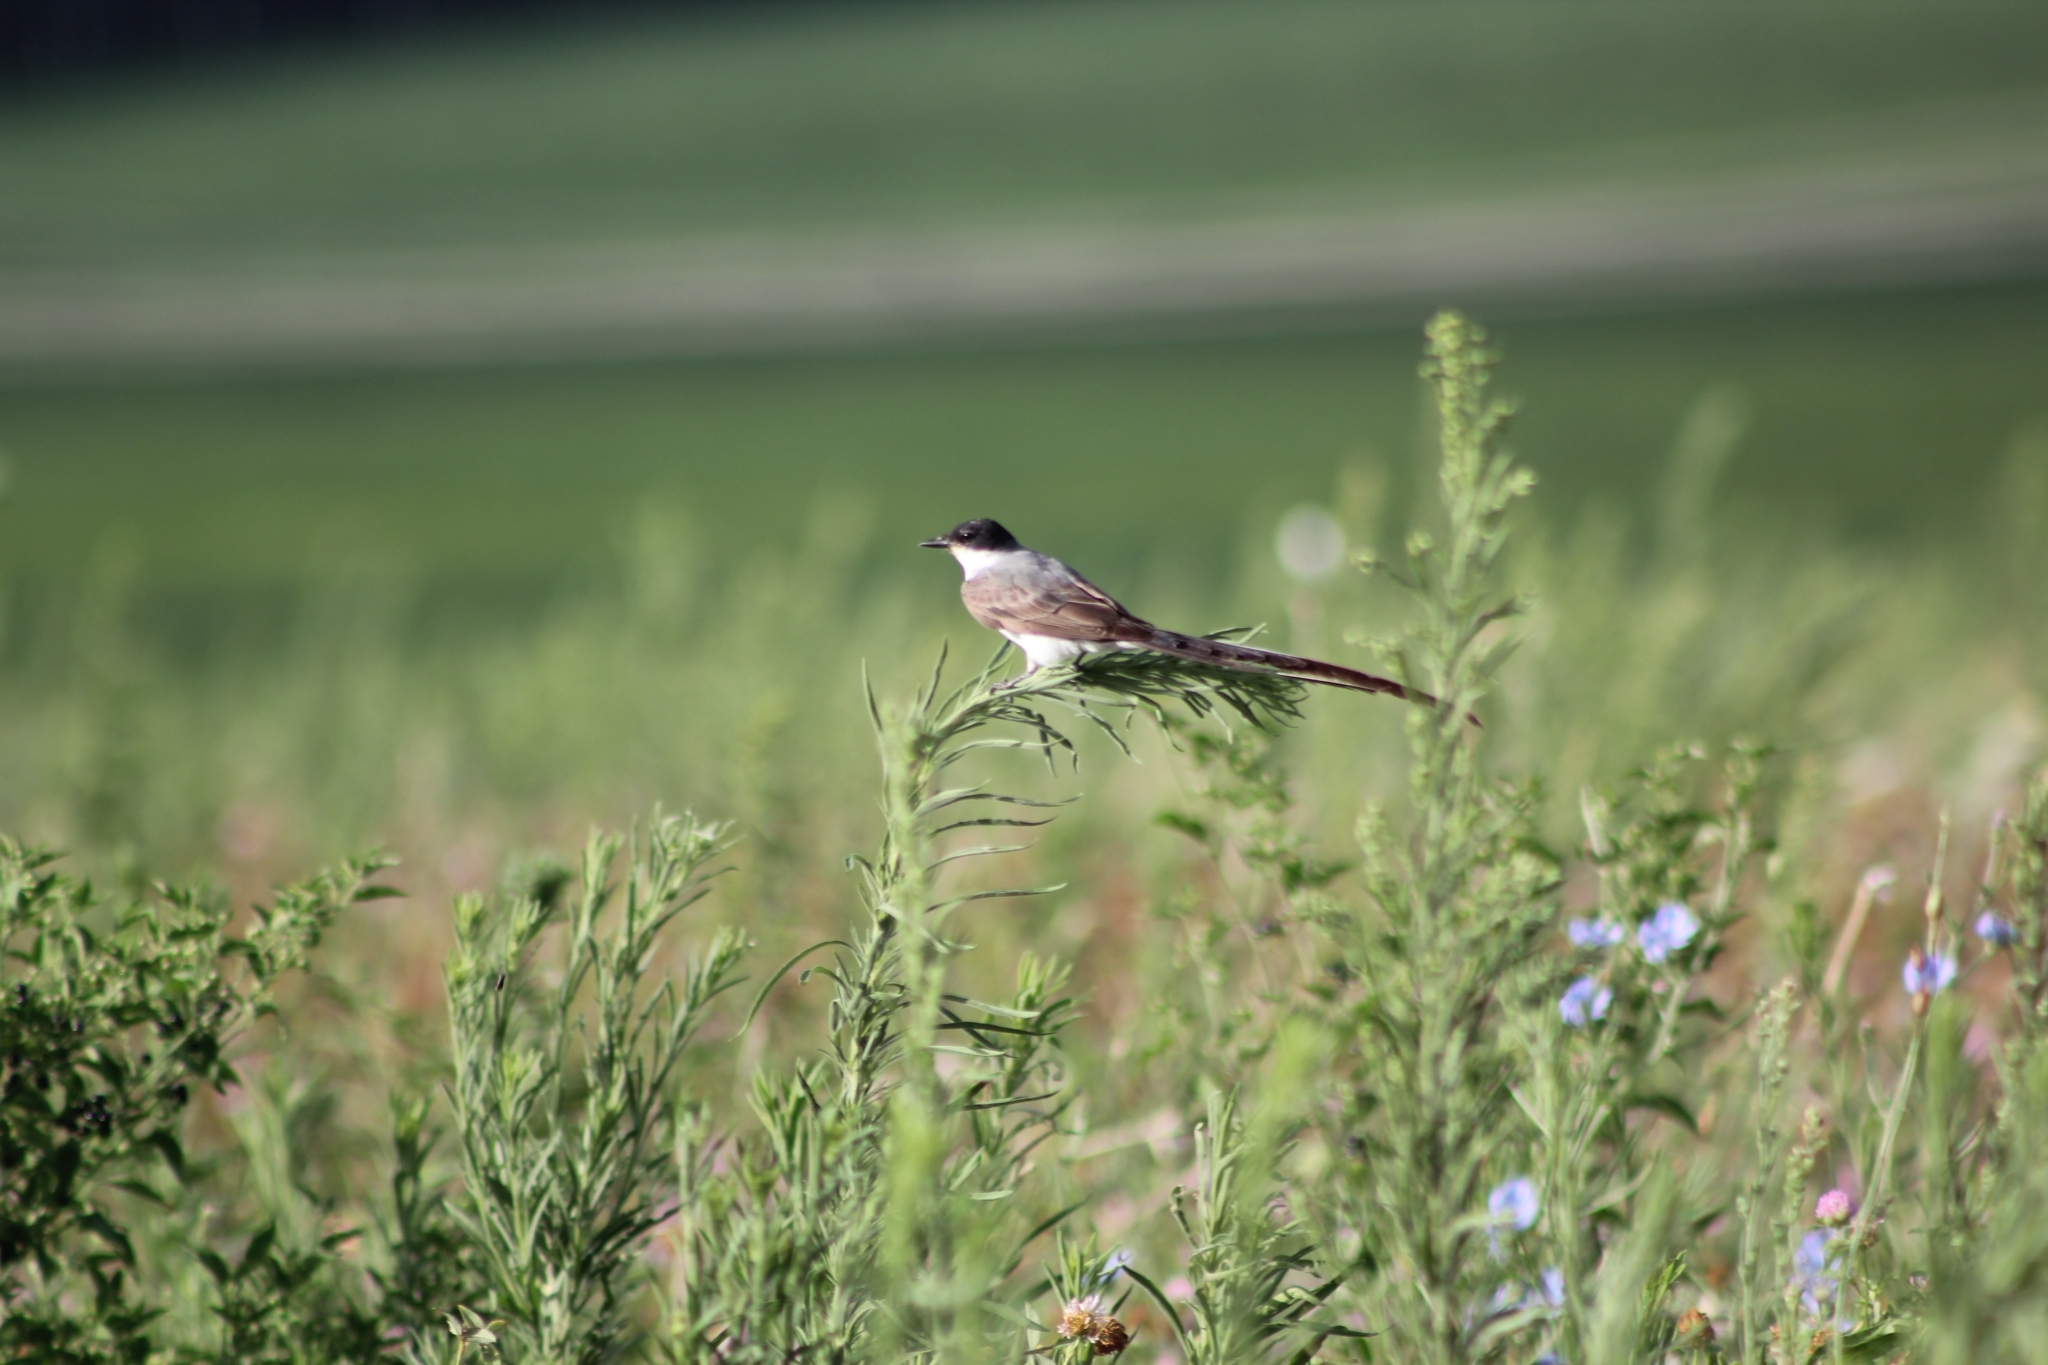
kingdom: Animalia
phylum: Chordata
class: Aves
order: Passeriformes
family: Tyrannidae
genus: Tyrannus
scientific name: Tyrannus savana
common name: Fork-tailed flycatcher
